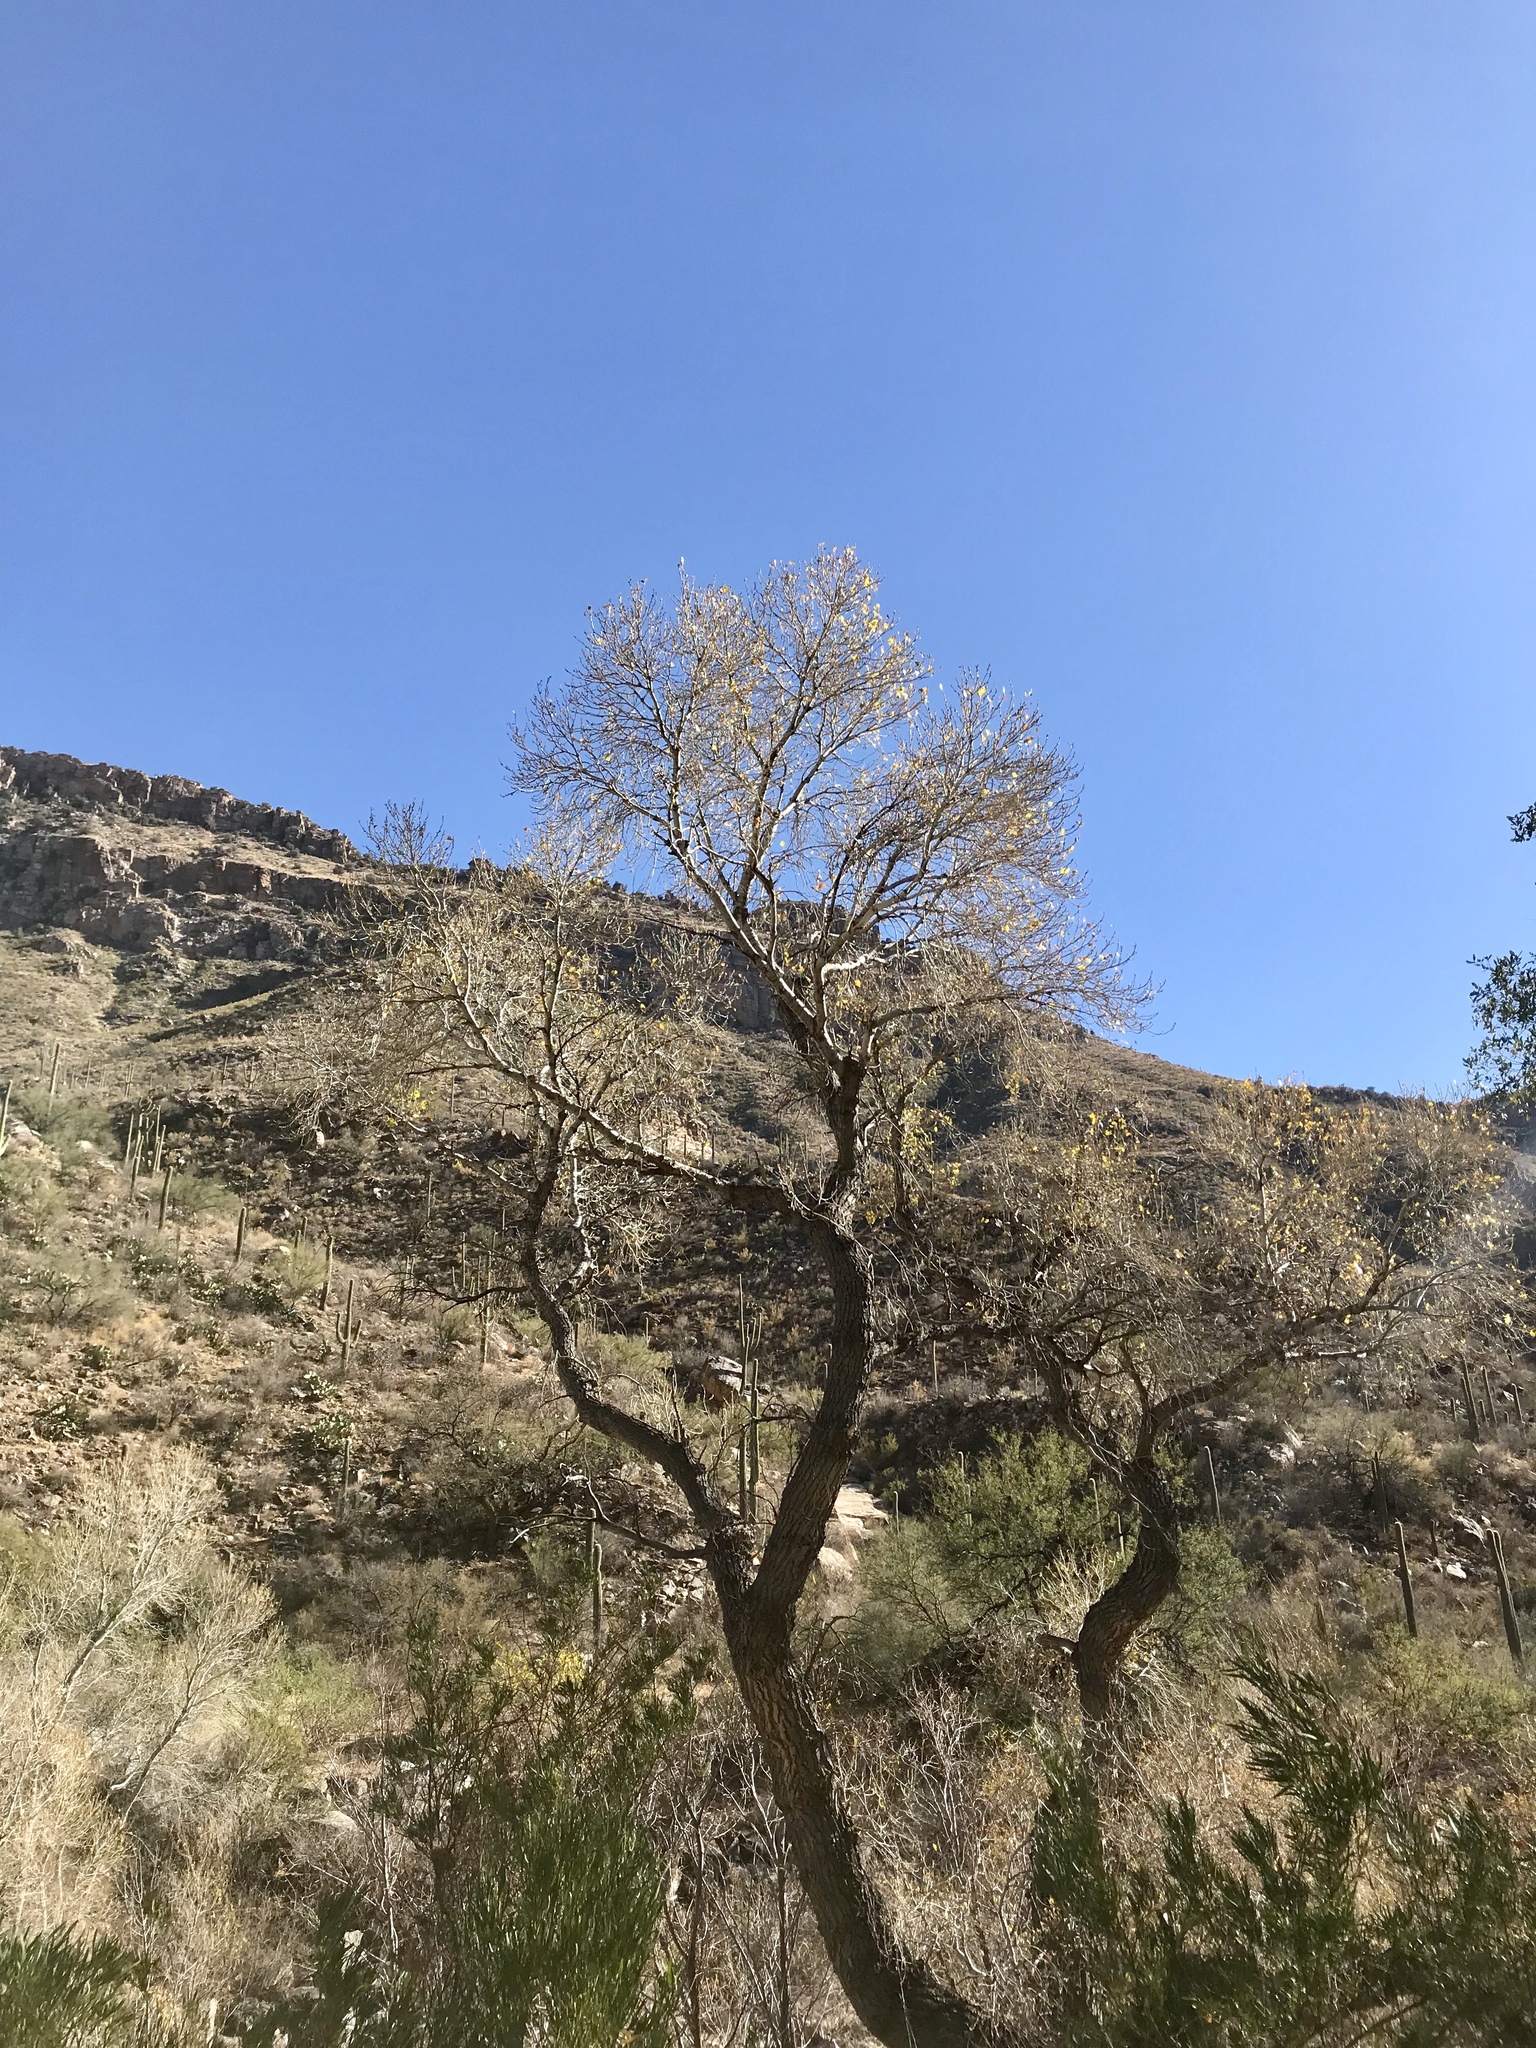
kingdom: Plantae
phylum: Tracheophyta
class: Magnoliopsida
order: Malpighiales
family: Salicaceae
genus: Populus
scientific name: Populus fremontii
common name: Fremont's cottonwood
